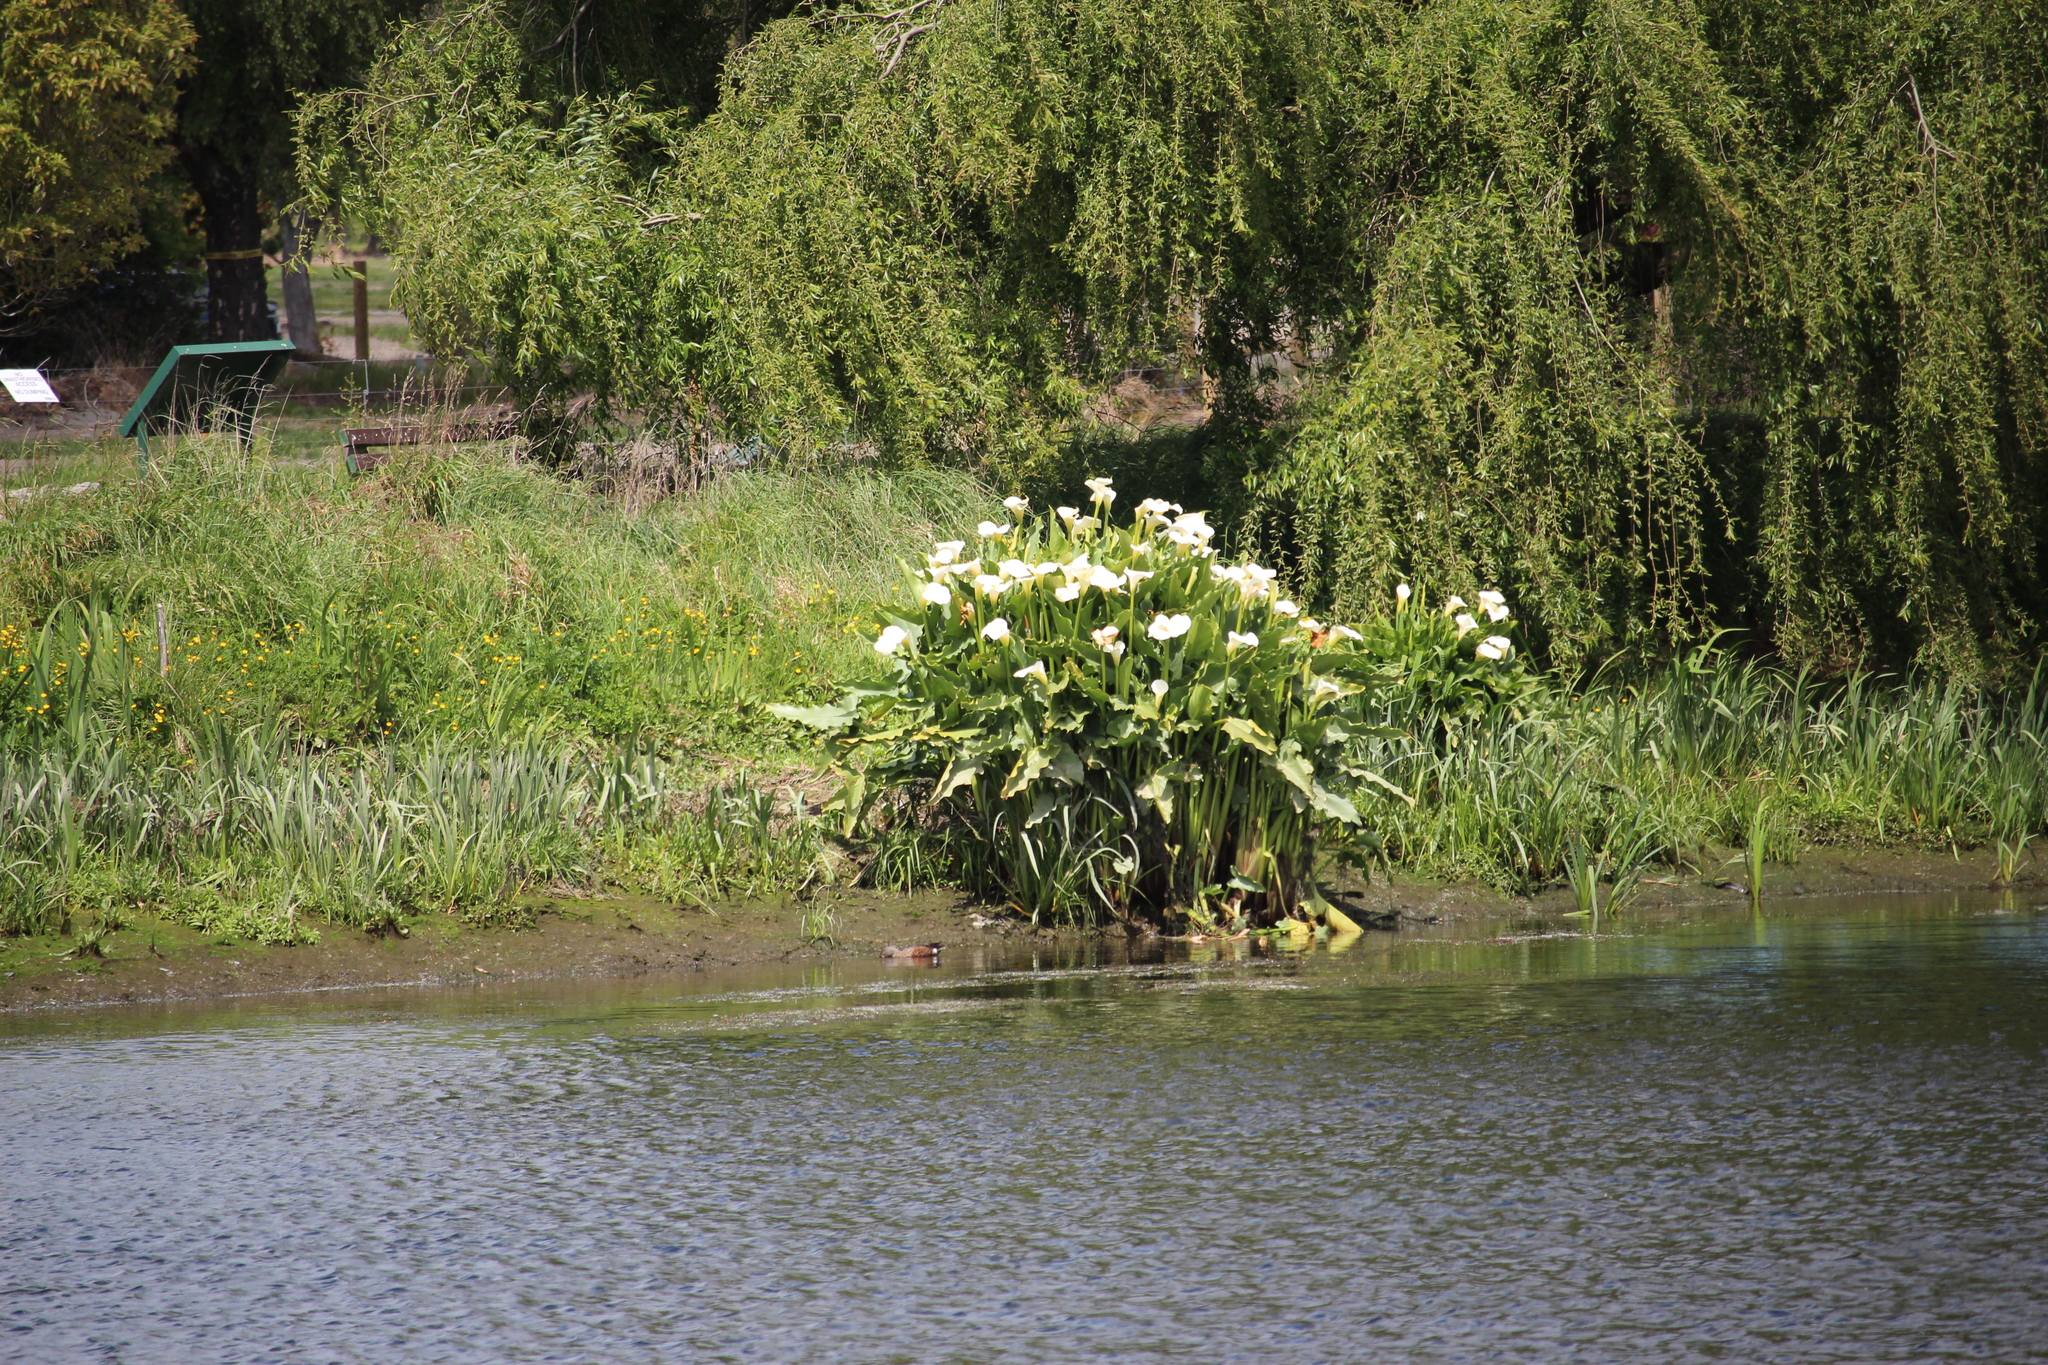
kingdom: Plantae
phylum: Tracheophyta
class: Liliopsida
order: Alismatales
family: Araceae
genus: Zantedeschia
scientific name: Zantedeschia aethiopica
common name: Altar-lily
